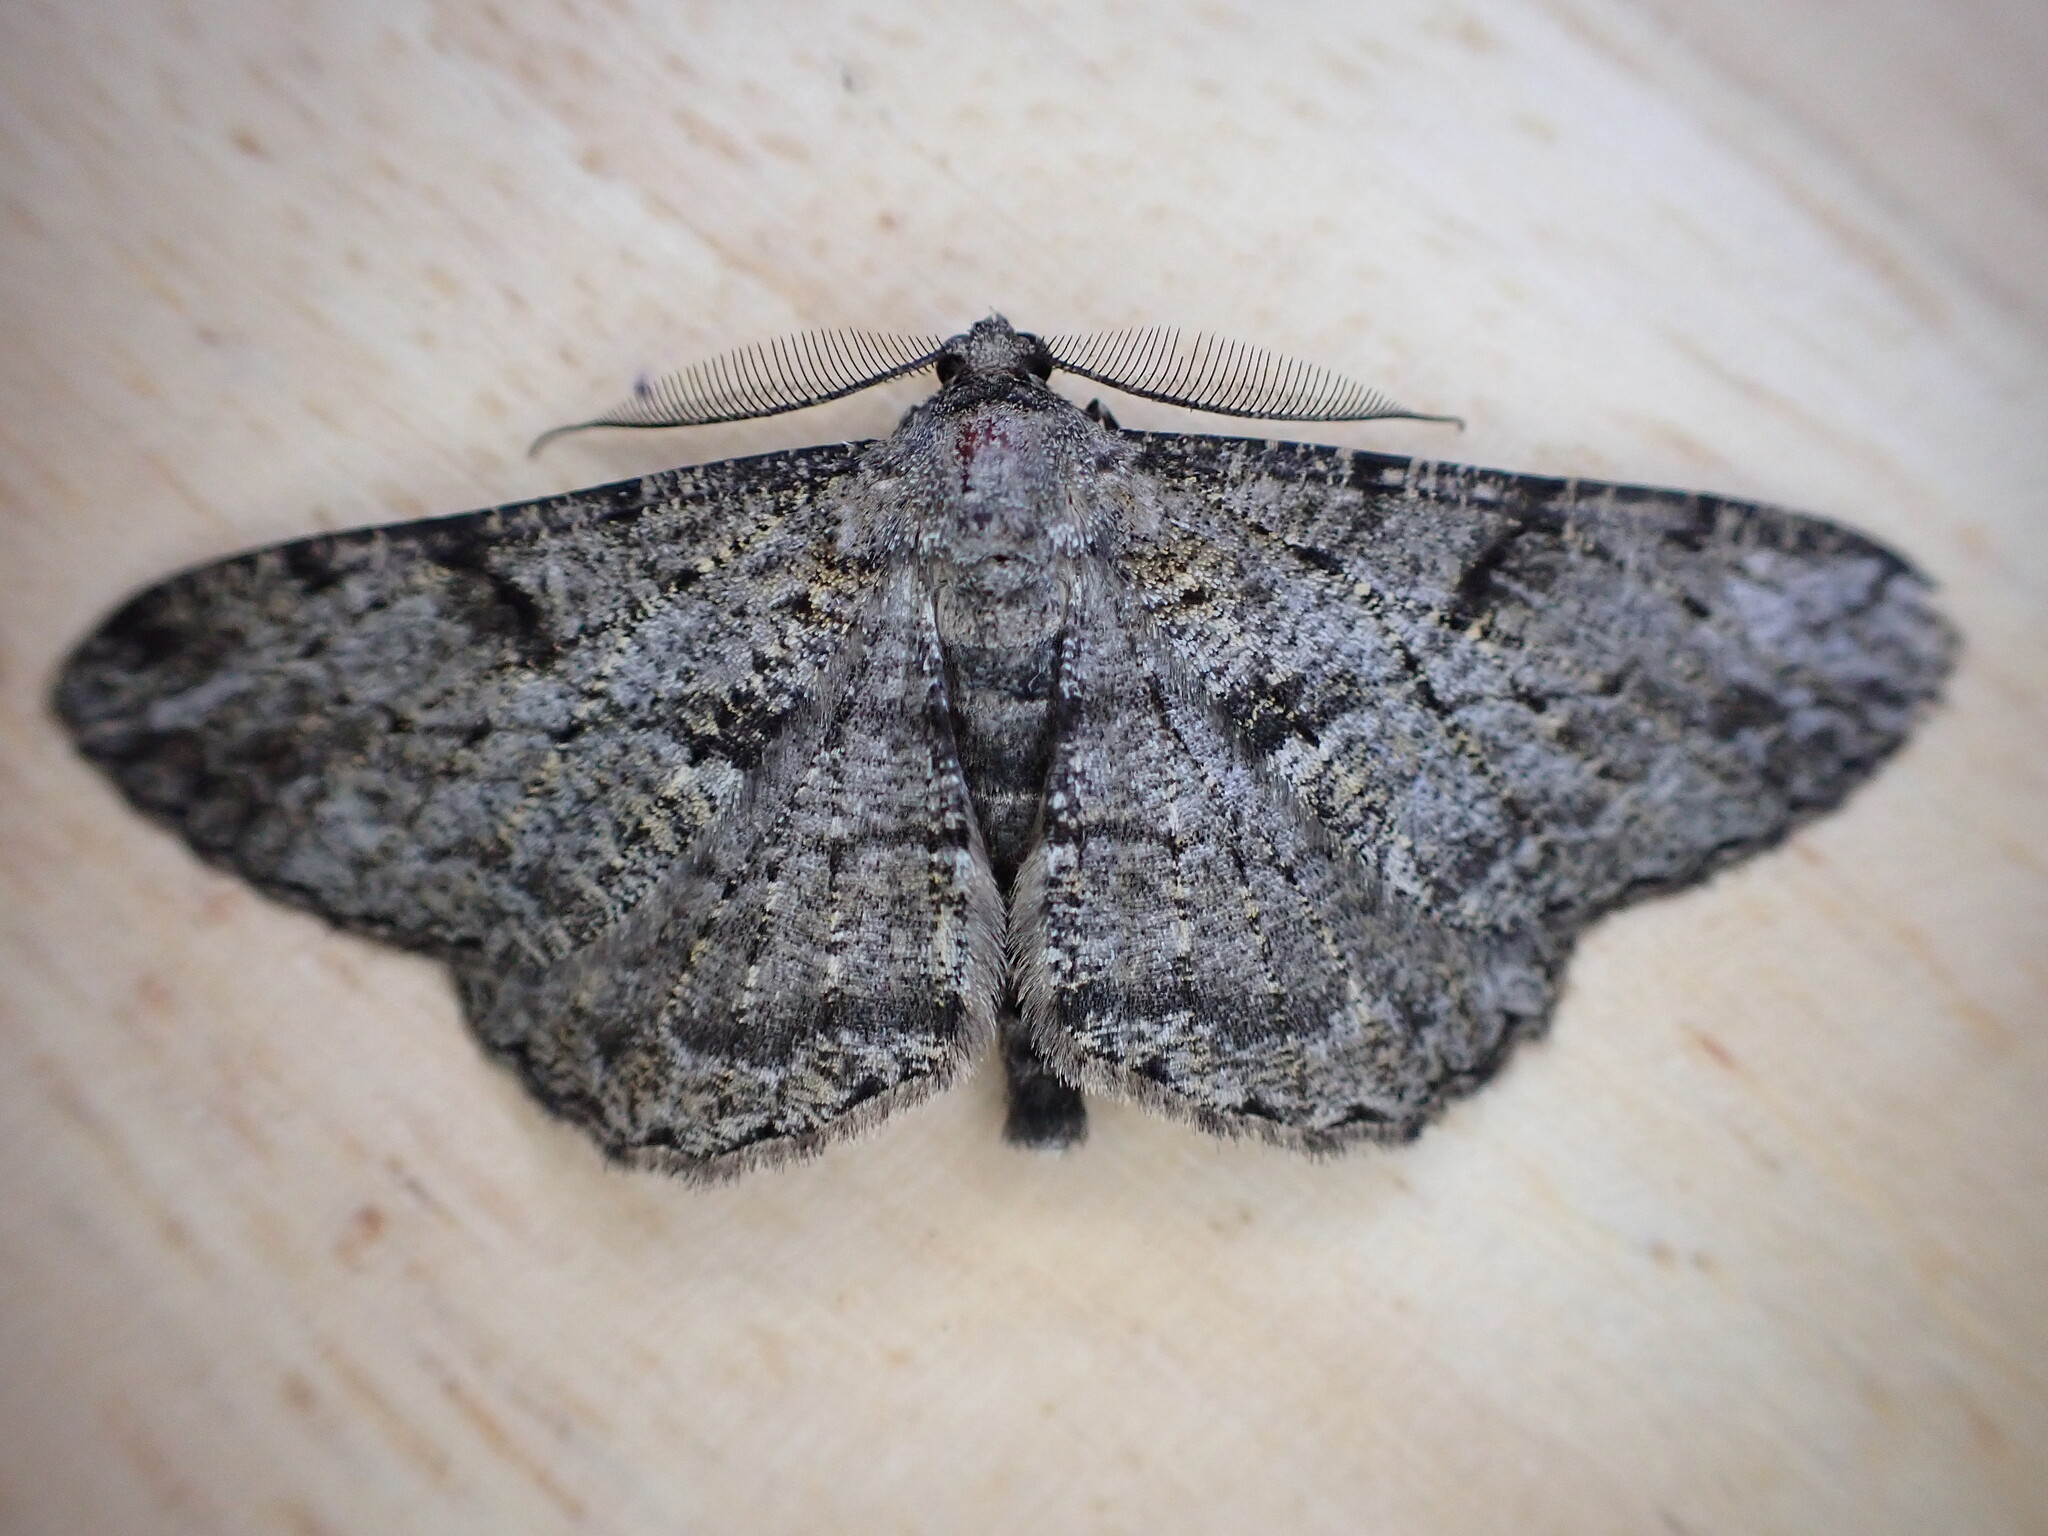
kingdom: Animalia
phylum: Arthropoda
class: Insecta
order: Lepidoptera
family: Geometridae
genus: Peribatodes
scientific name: Peribatodes rhomboidaria
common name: Willow beauty
